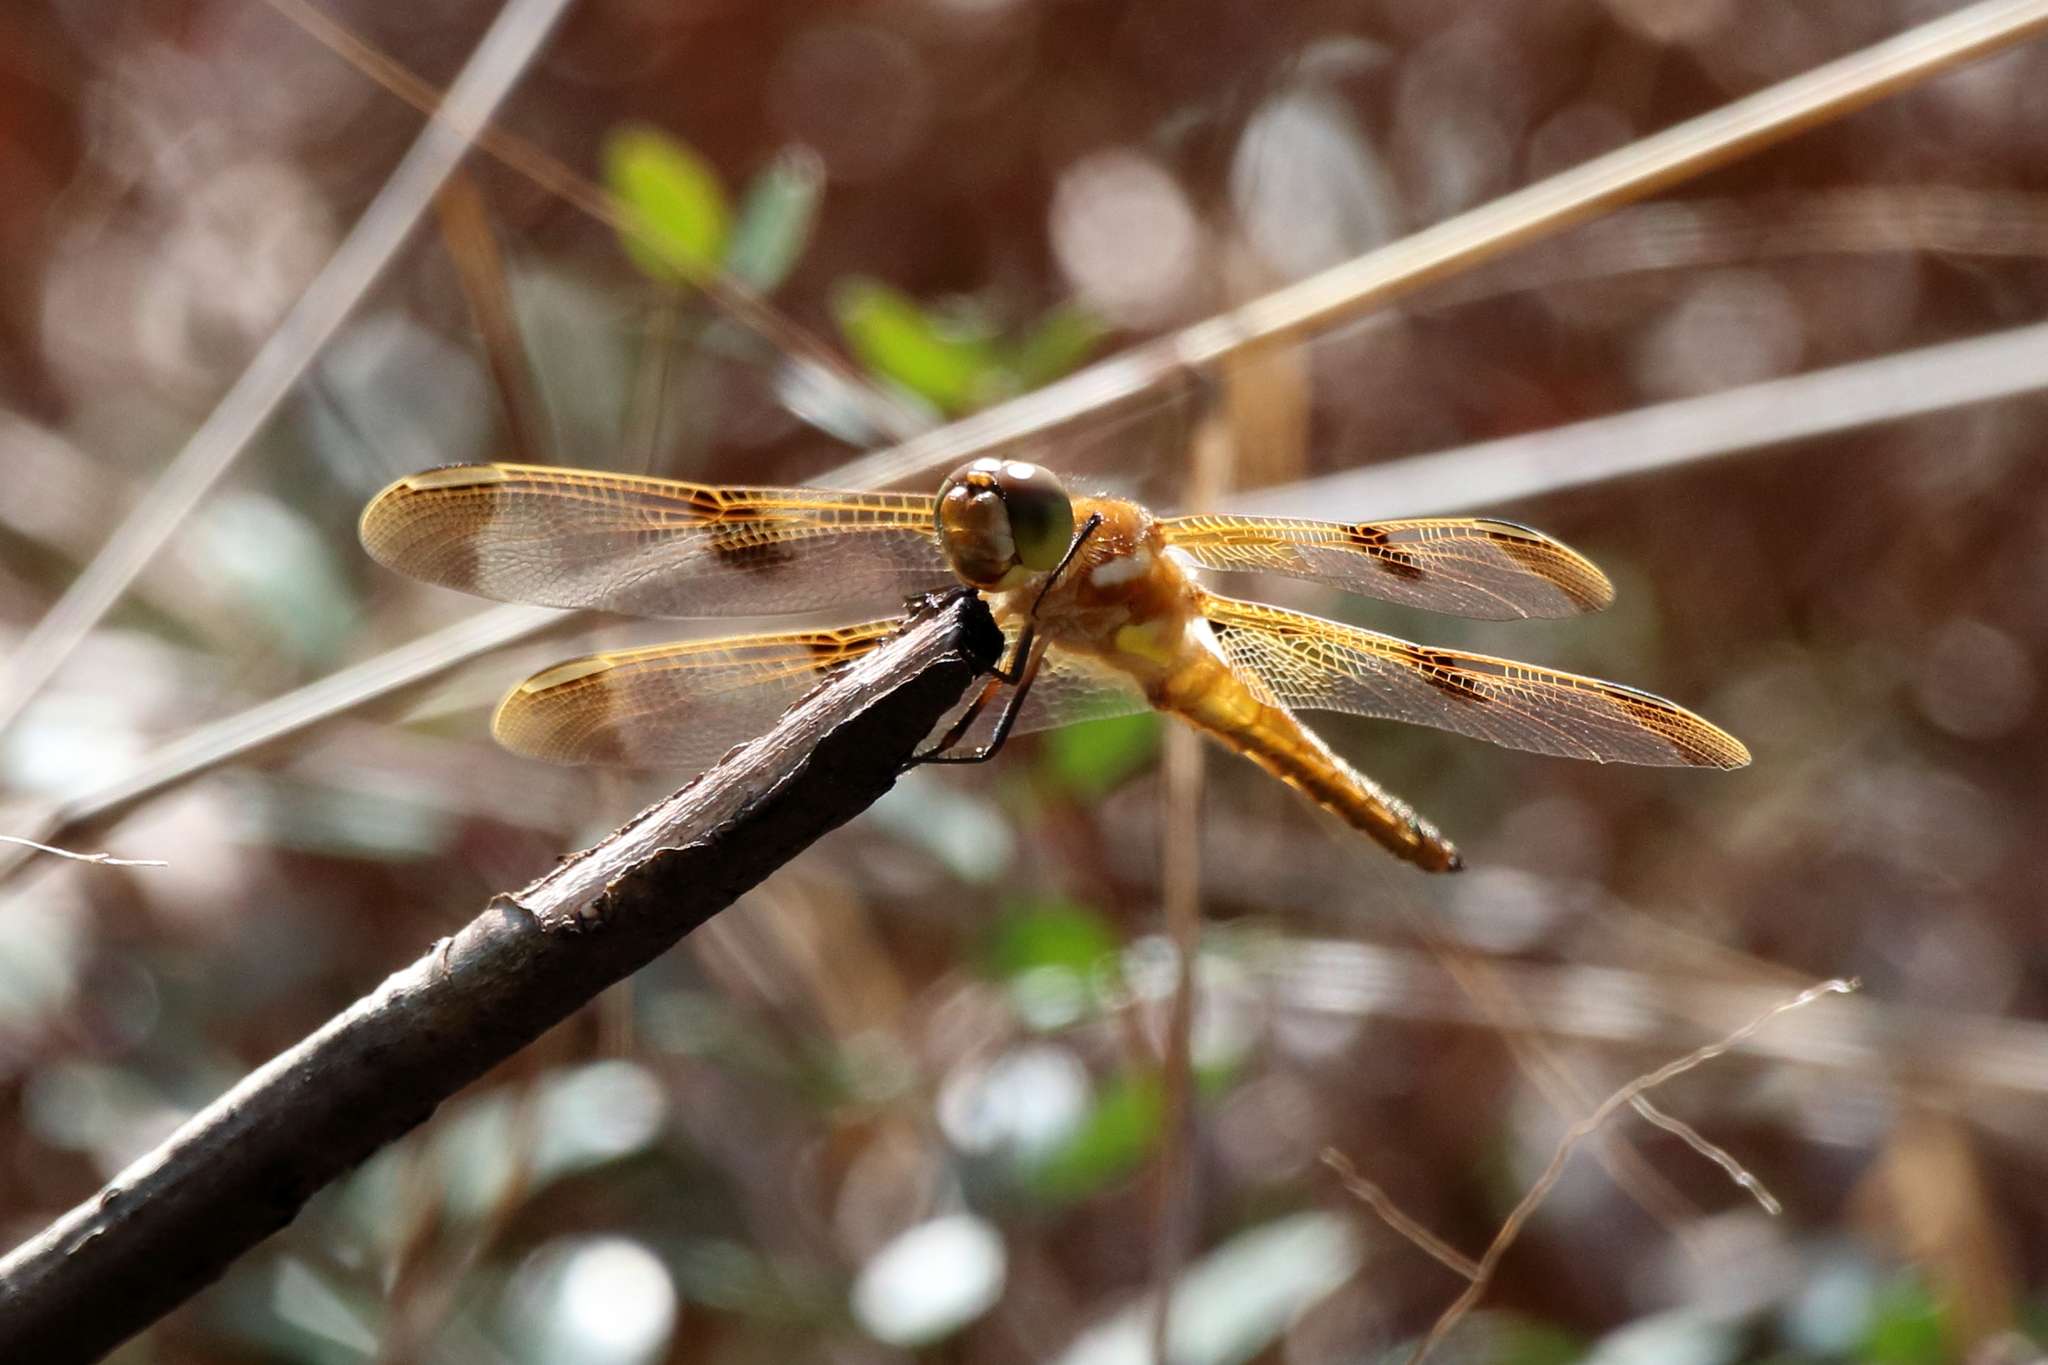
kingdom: Animalia
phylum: Arthropoda
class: Insecta
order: Odonata
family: Libellulidae
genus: Libellula
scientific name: Libellula semifasciata
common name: Painted skimmer
